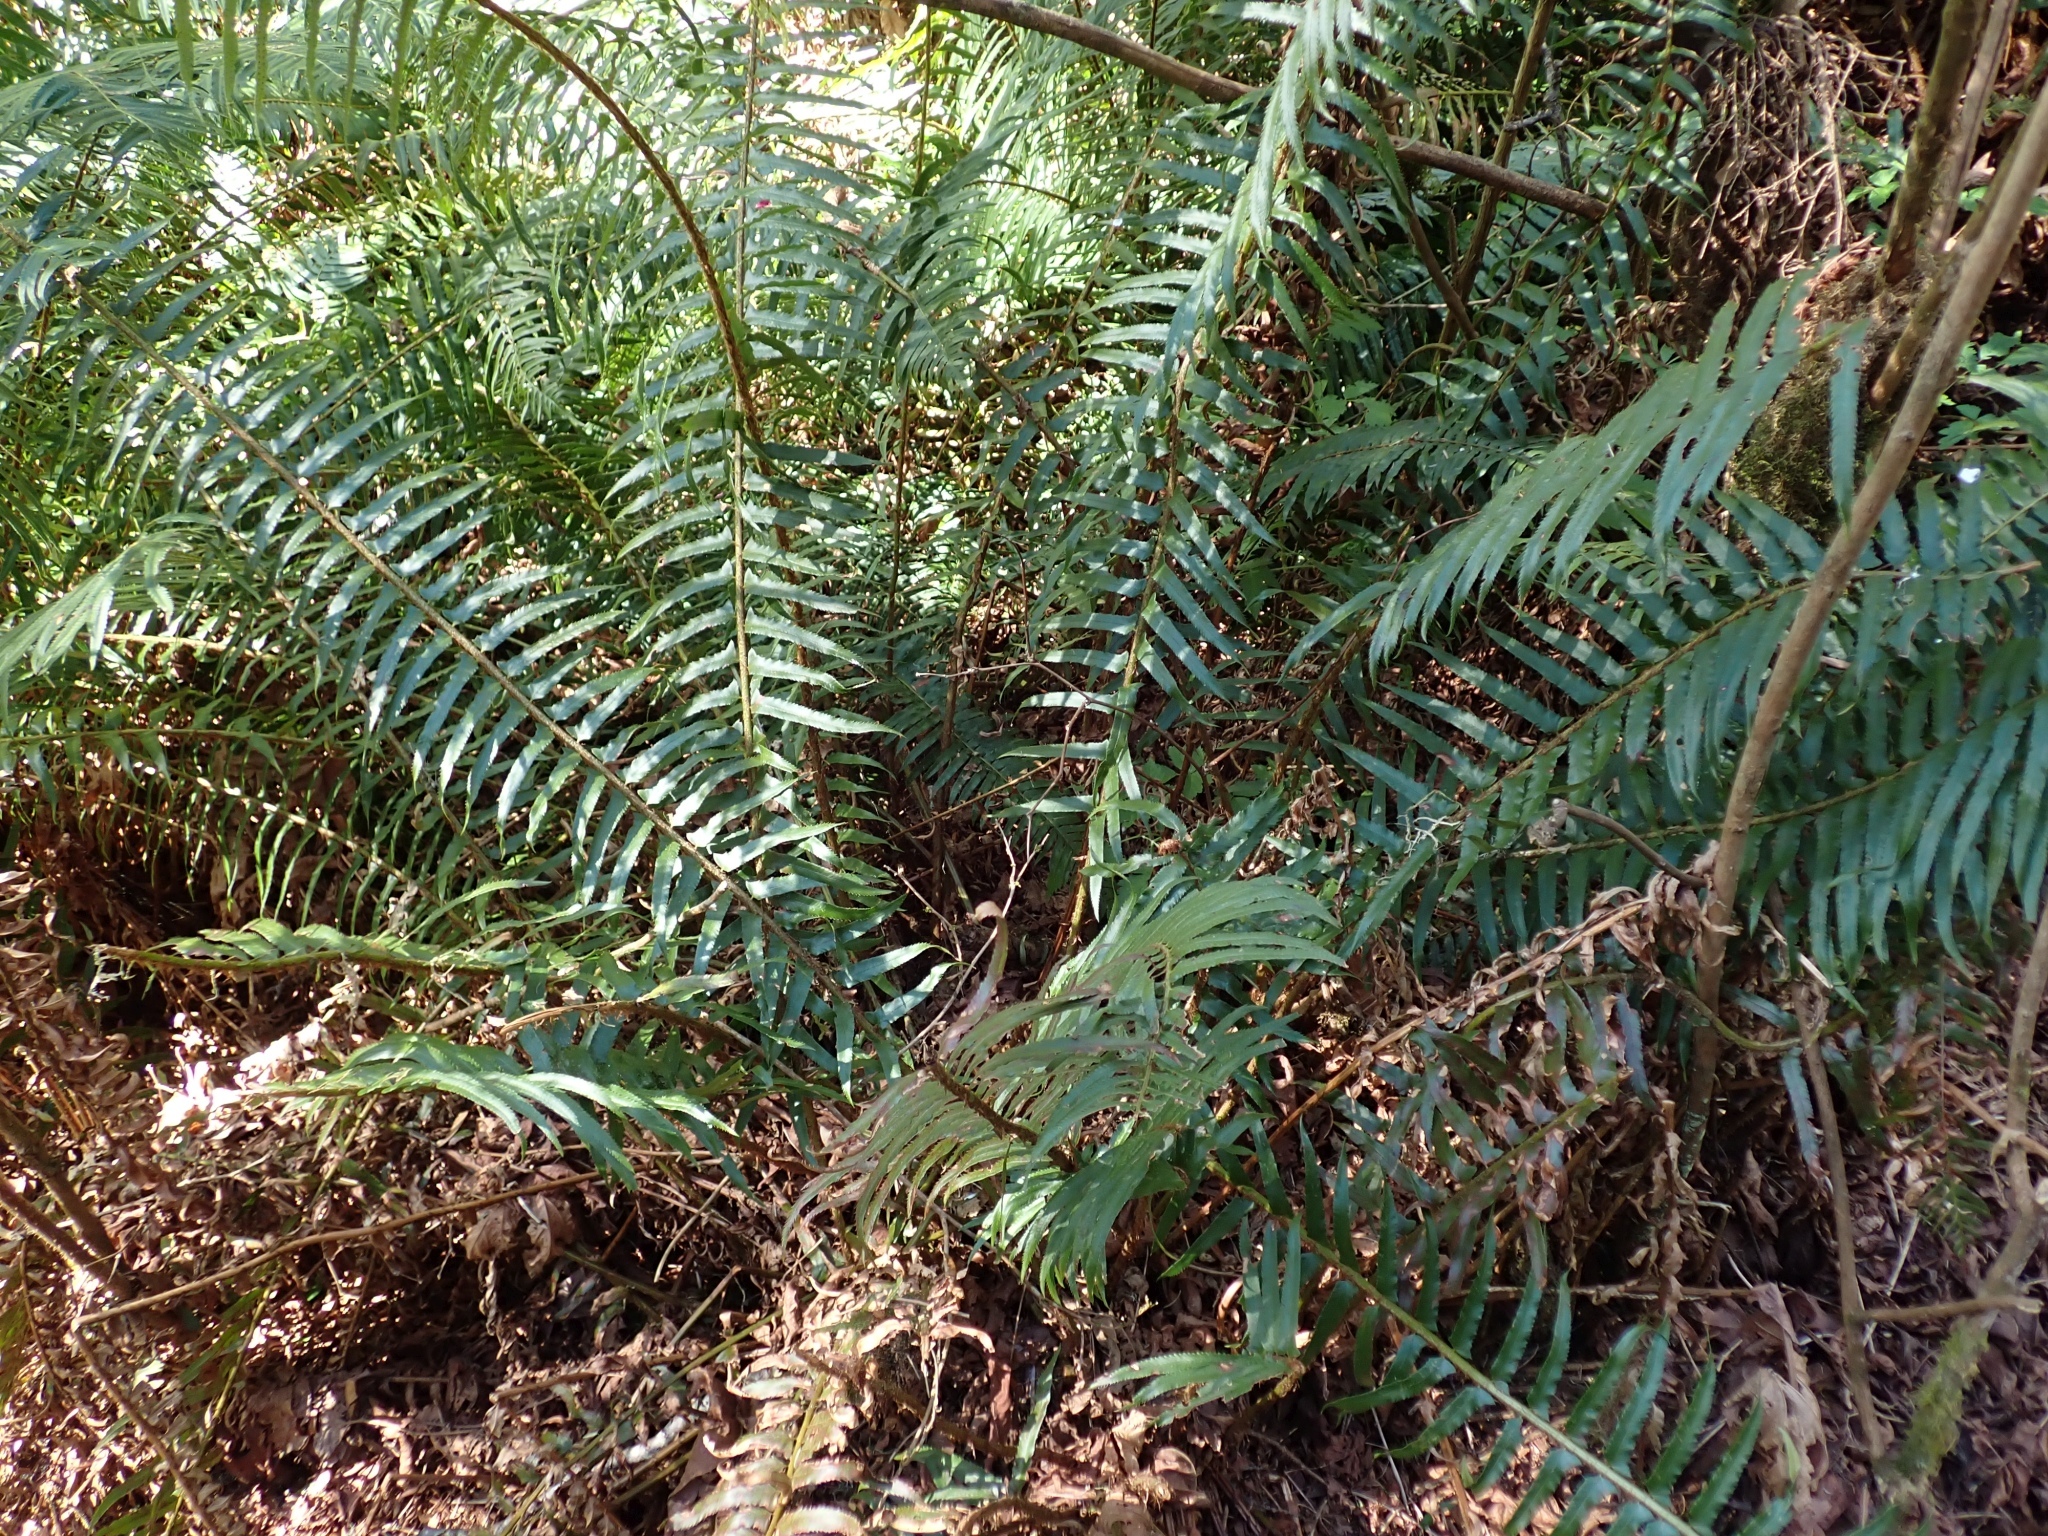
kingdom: Plantae
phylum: Tracheophyta
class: Polypodiopsida
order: Polypodiales
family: Dryopteridaceae
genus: Polystichum
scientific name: Polystichum munitum
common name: Western sword-fern
